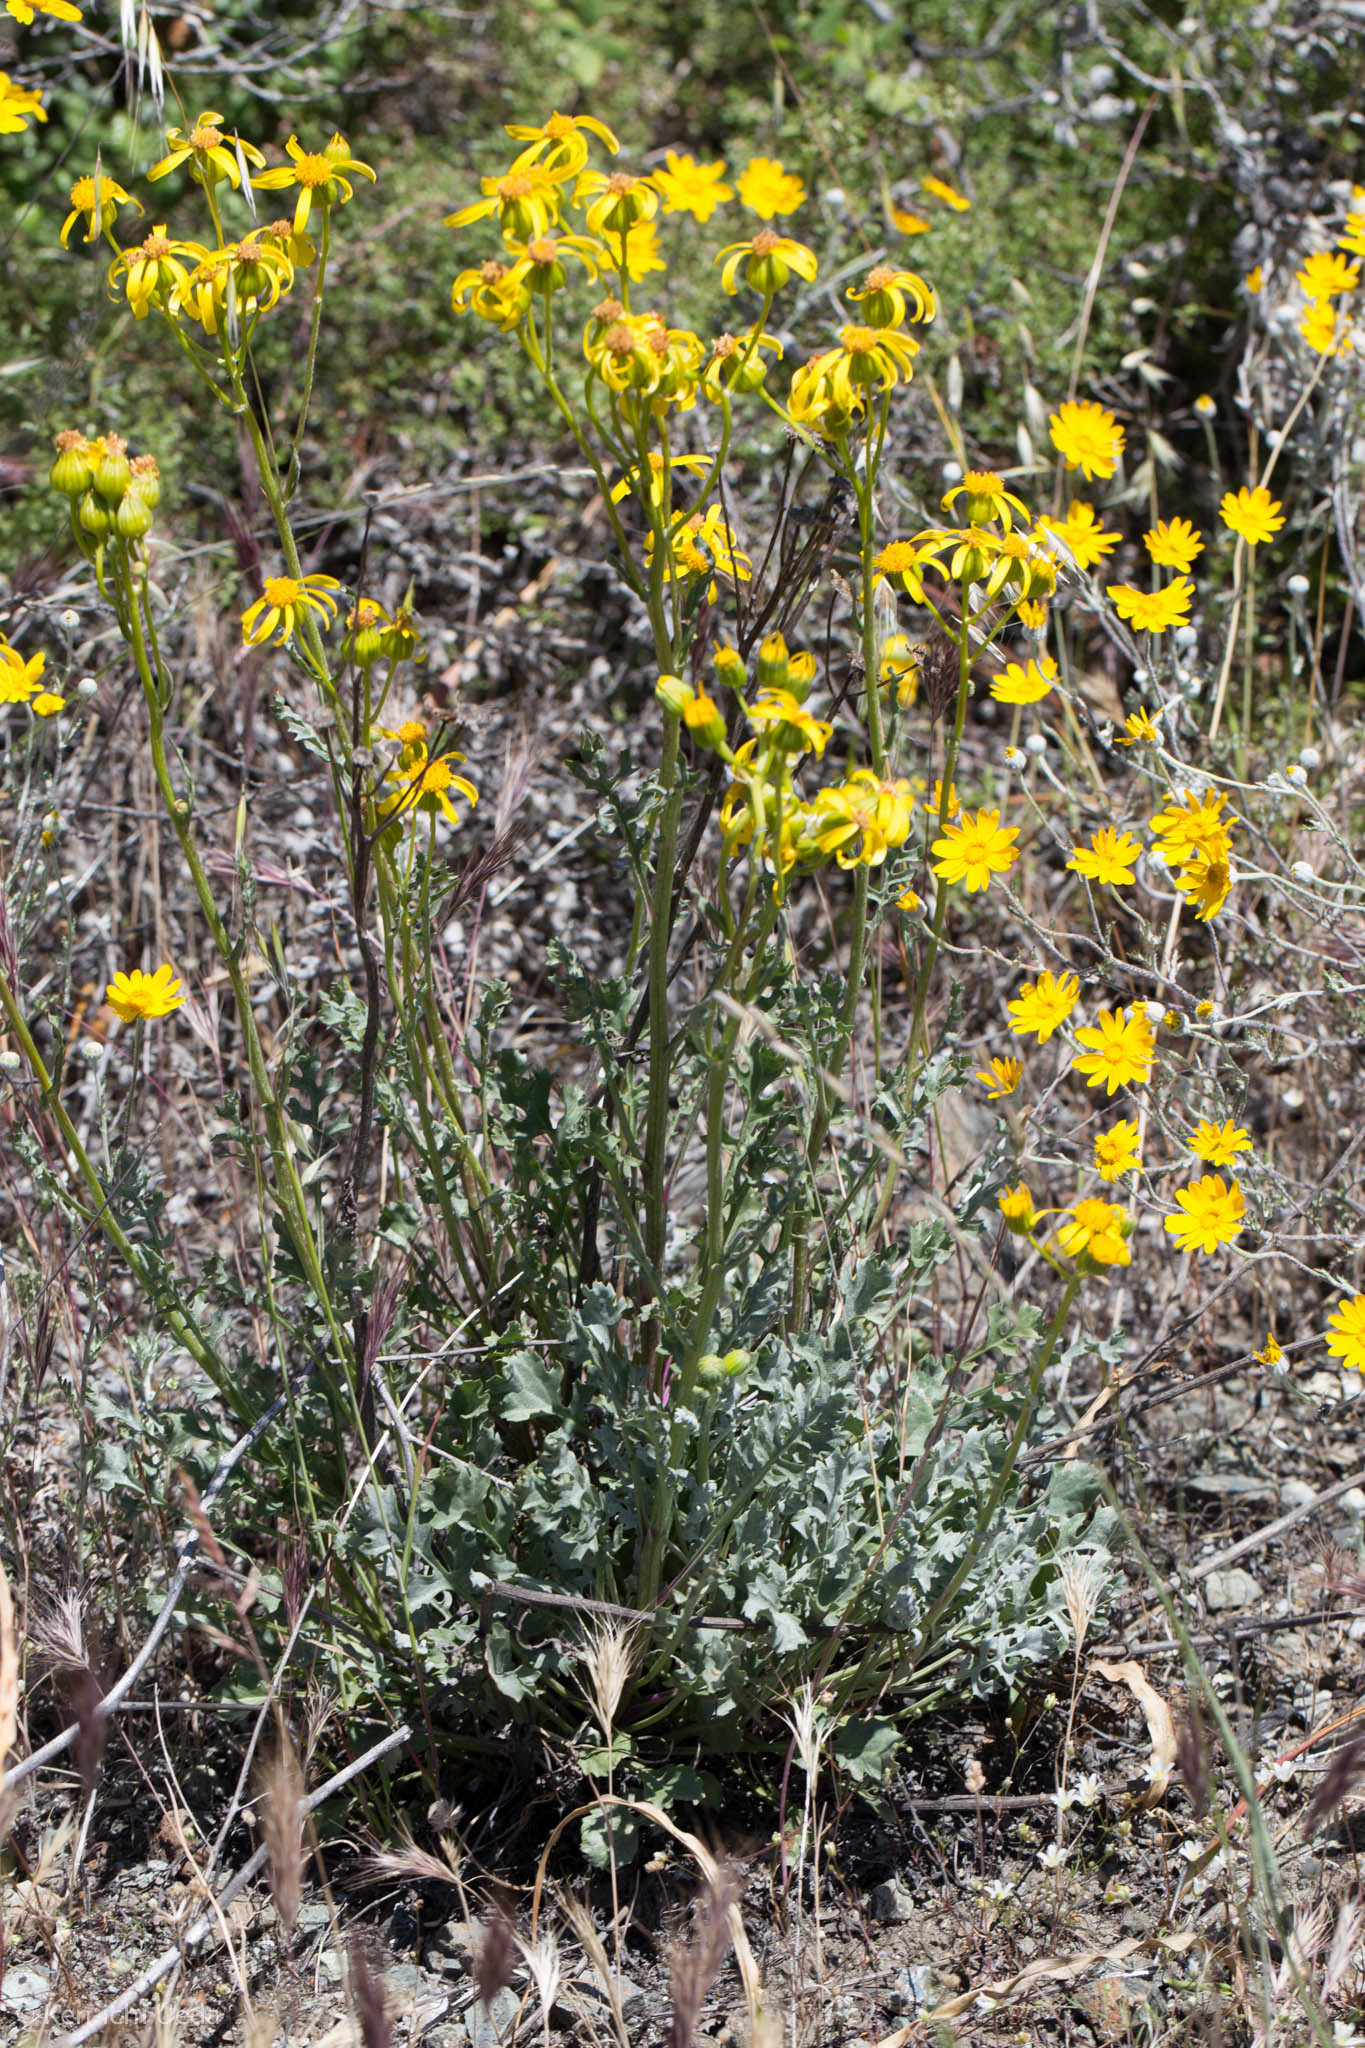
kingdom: Plantae
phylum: Tracheophyta
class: Magnoliopsida
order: Asterales
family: Asteraceae
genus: Packera
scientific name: Packera eurycephala
